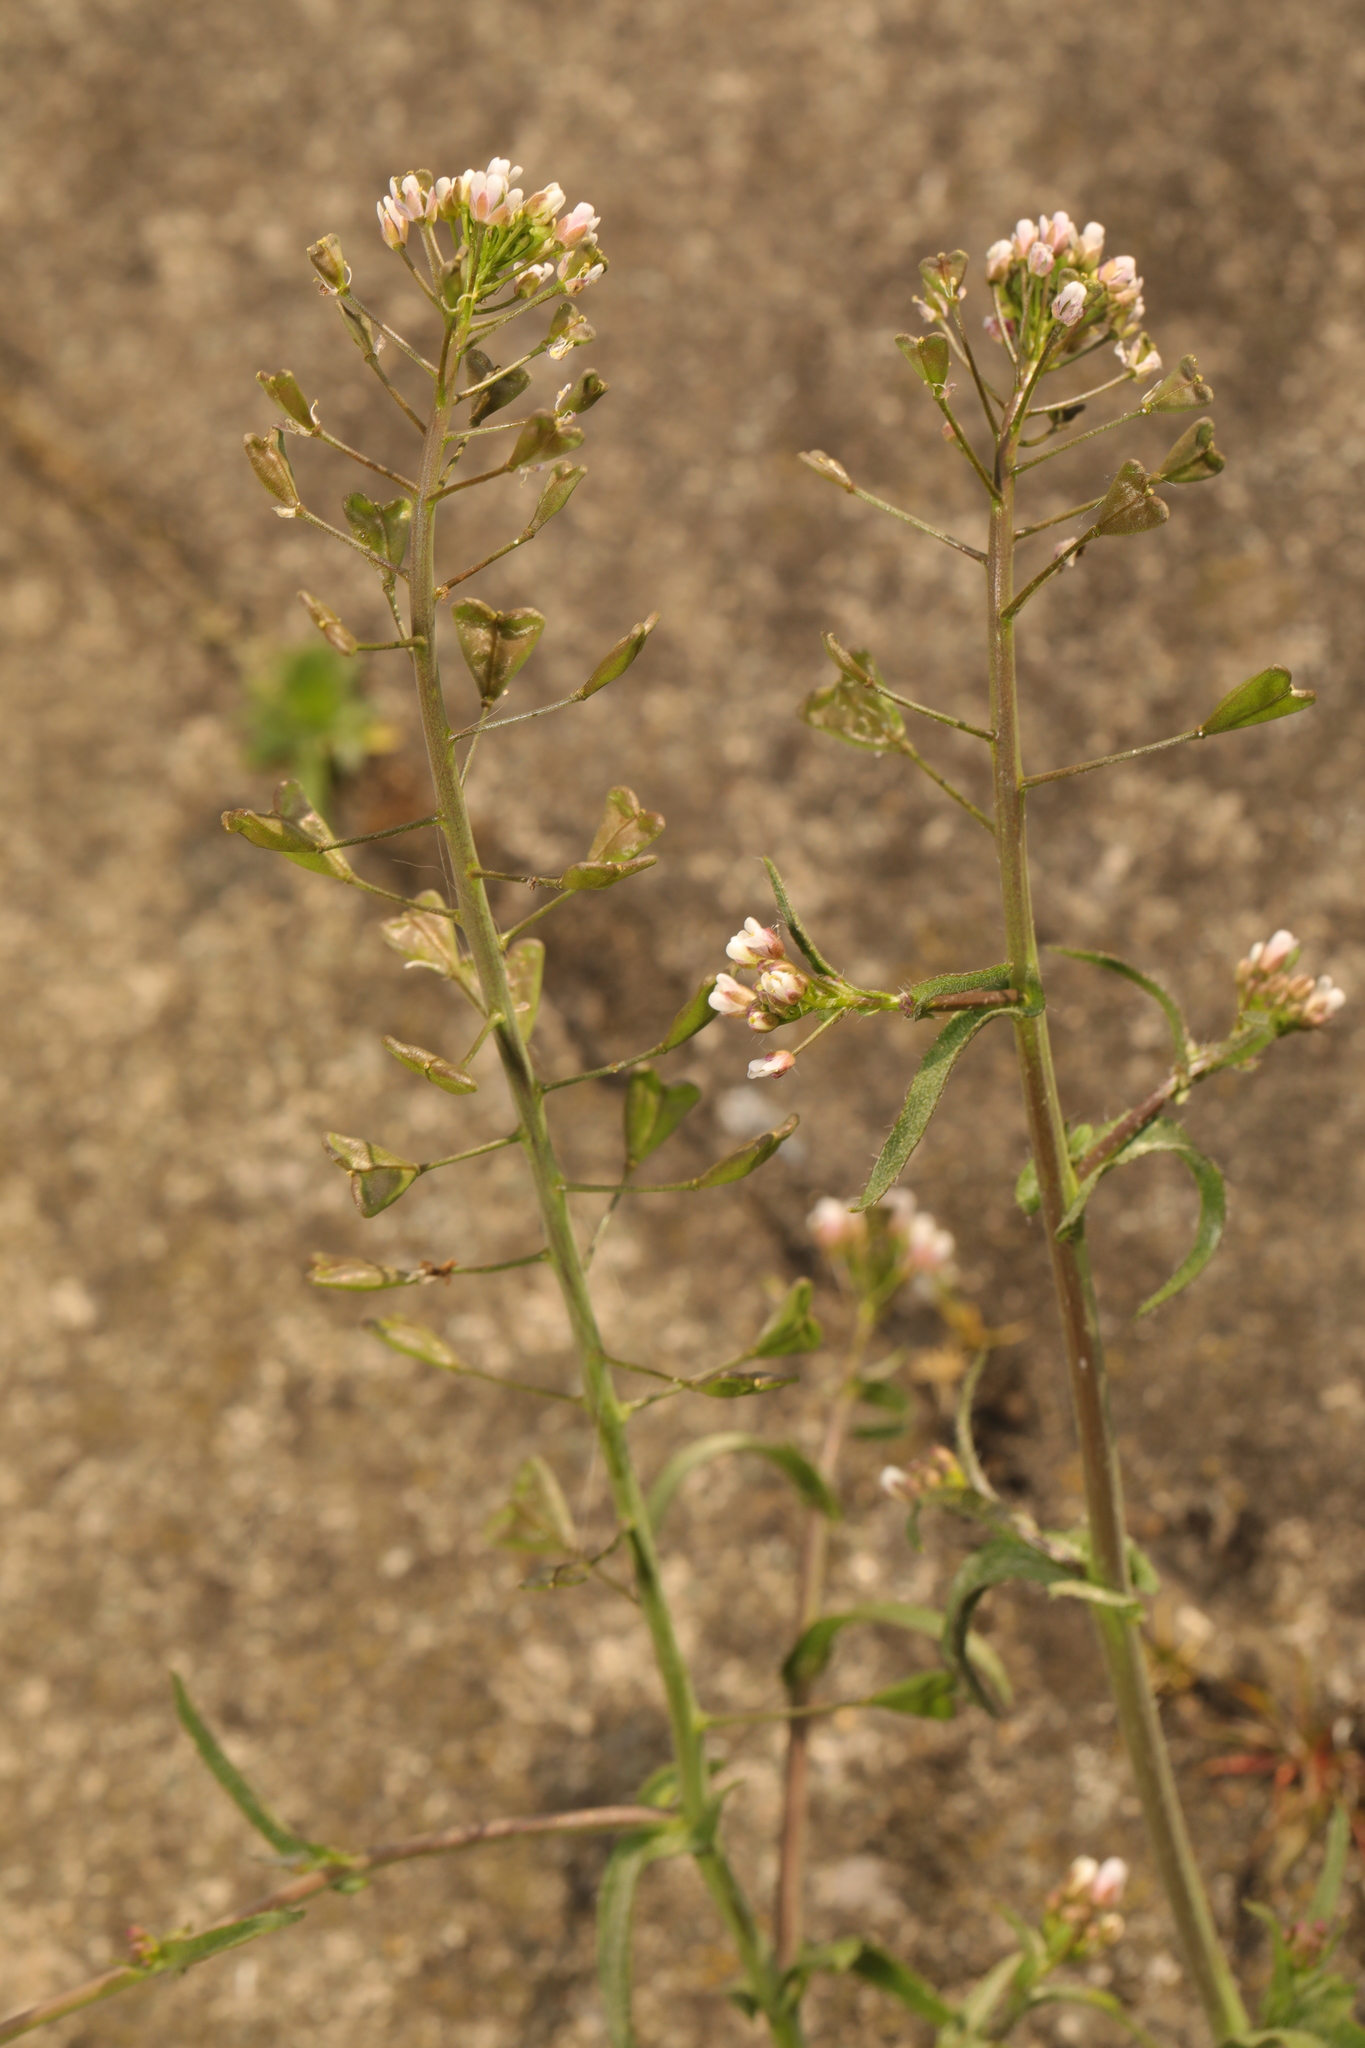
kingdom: Plantae
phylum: Tracheophyta
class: Magnoliopsida
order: Brassicales
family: Brassicaceae
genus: Capsella
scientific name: Capsella bursa-pastoris
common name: Shepherd's purse
